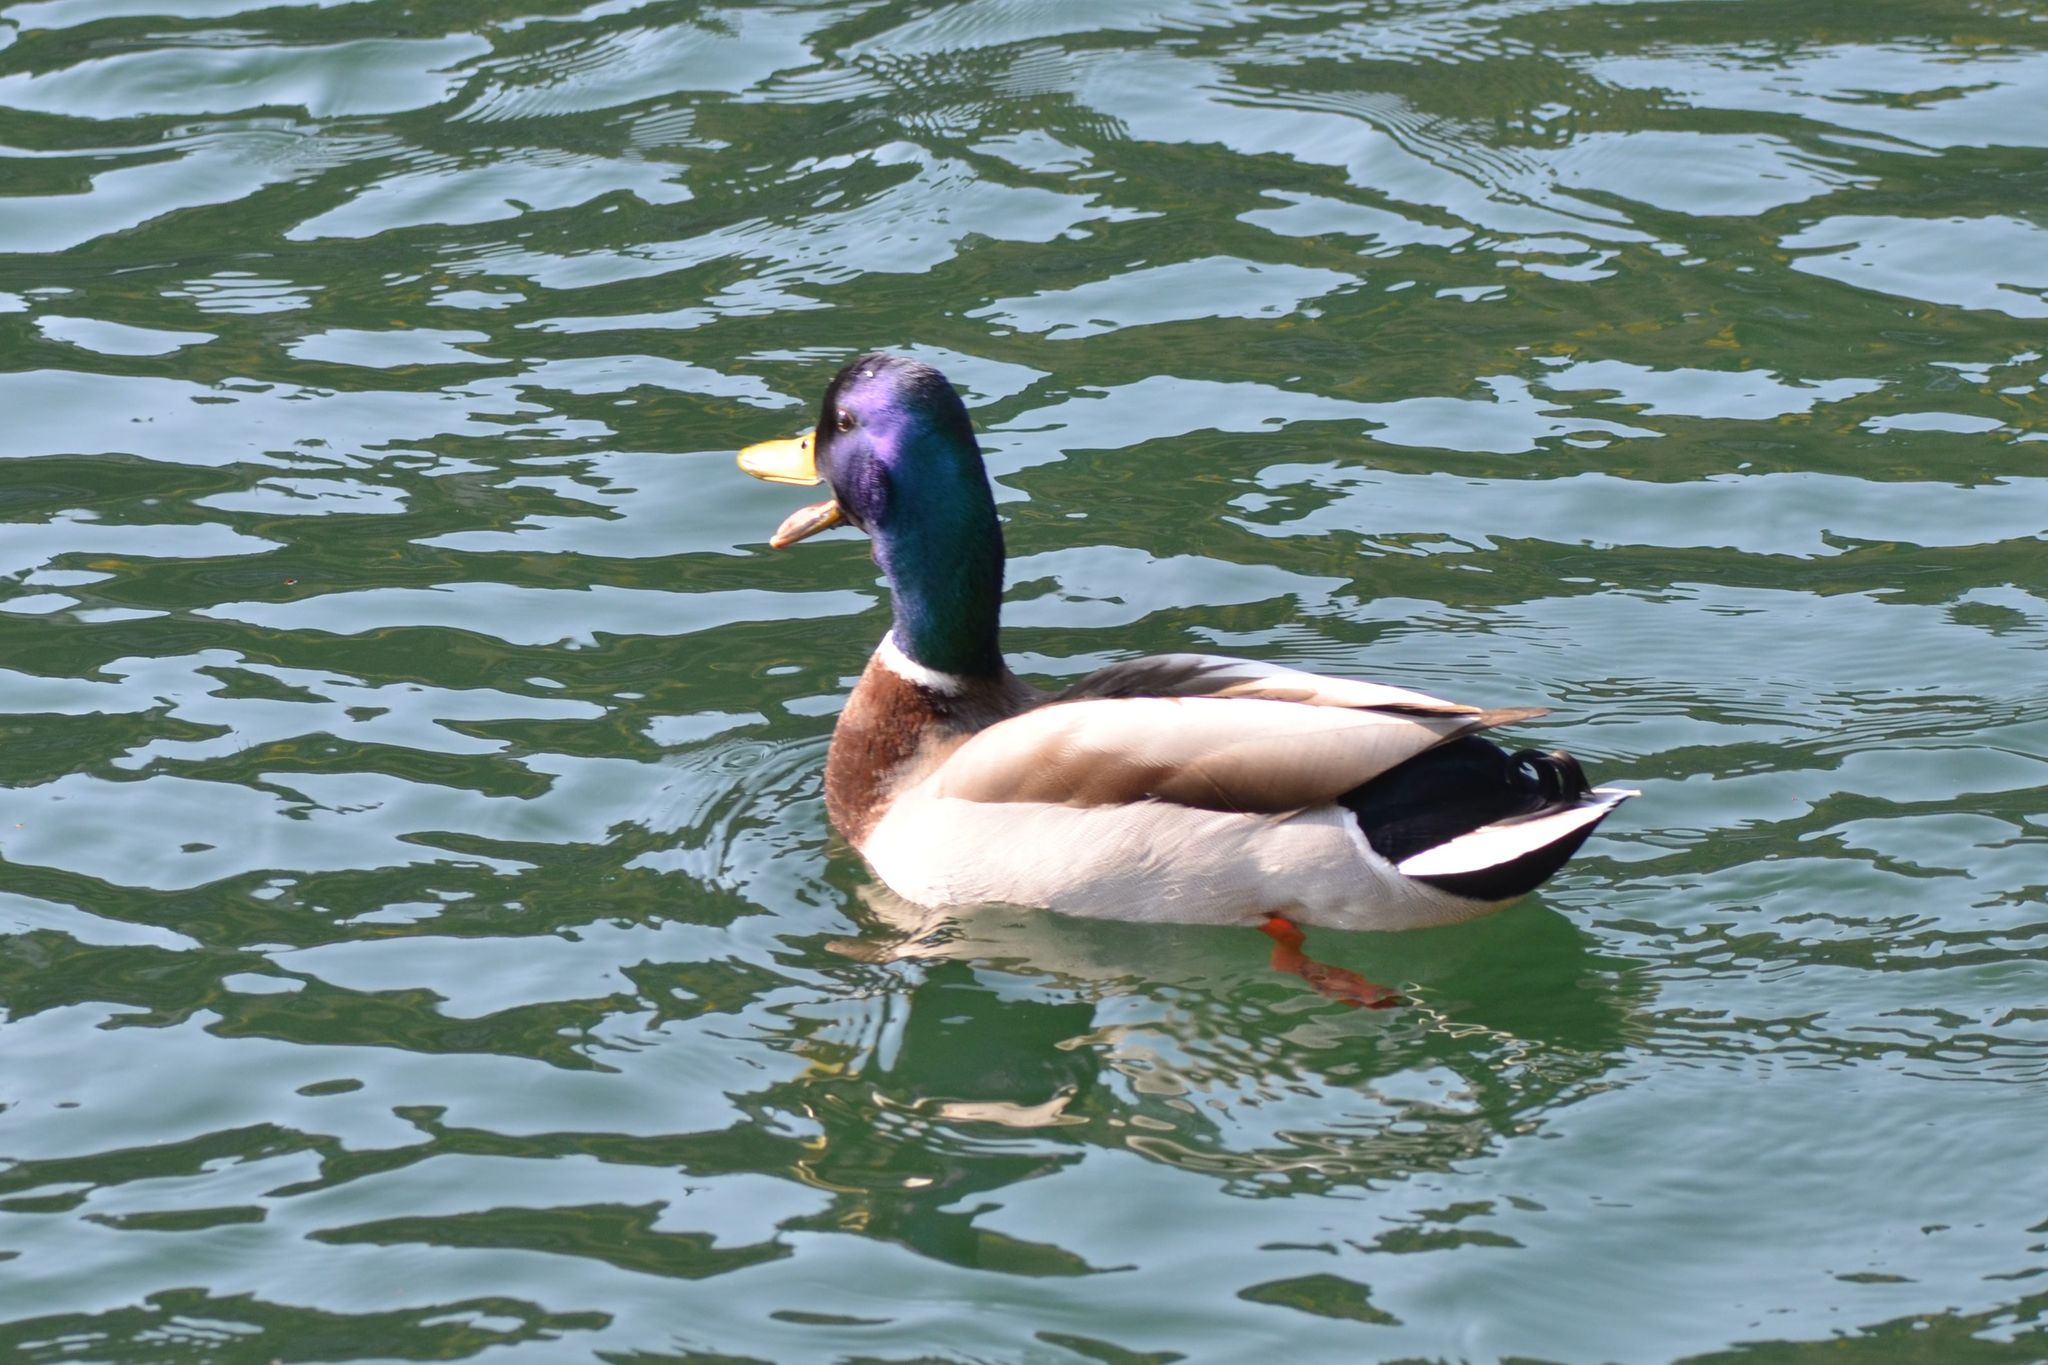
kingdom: Animalia
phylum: Chordata
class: Aves
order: Anseriformes
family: Anatidae
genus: Anas
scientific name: Anas platyrhynchos
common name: Mallard
